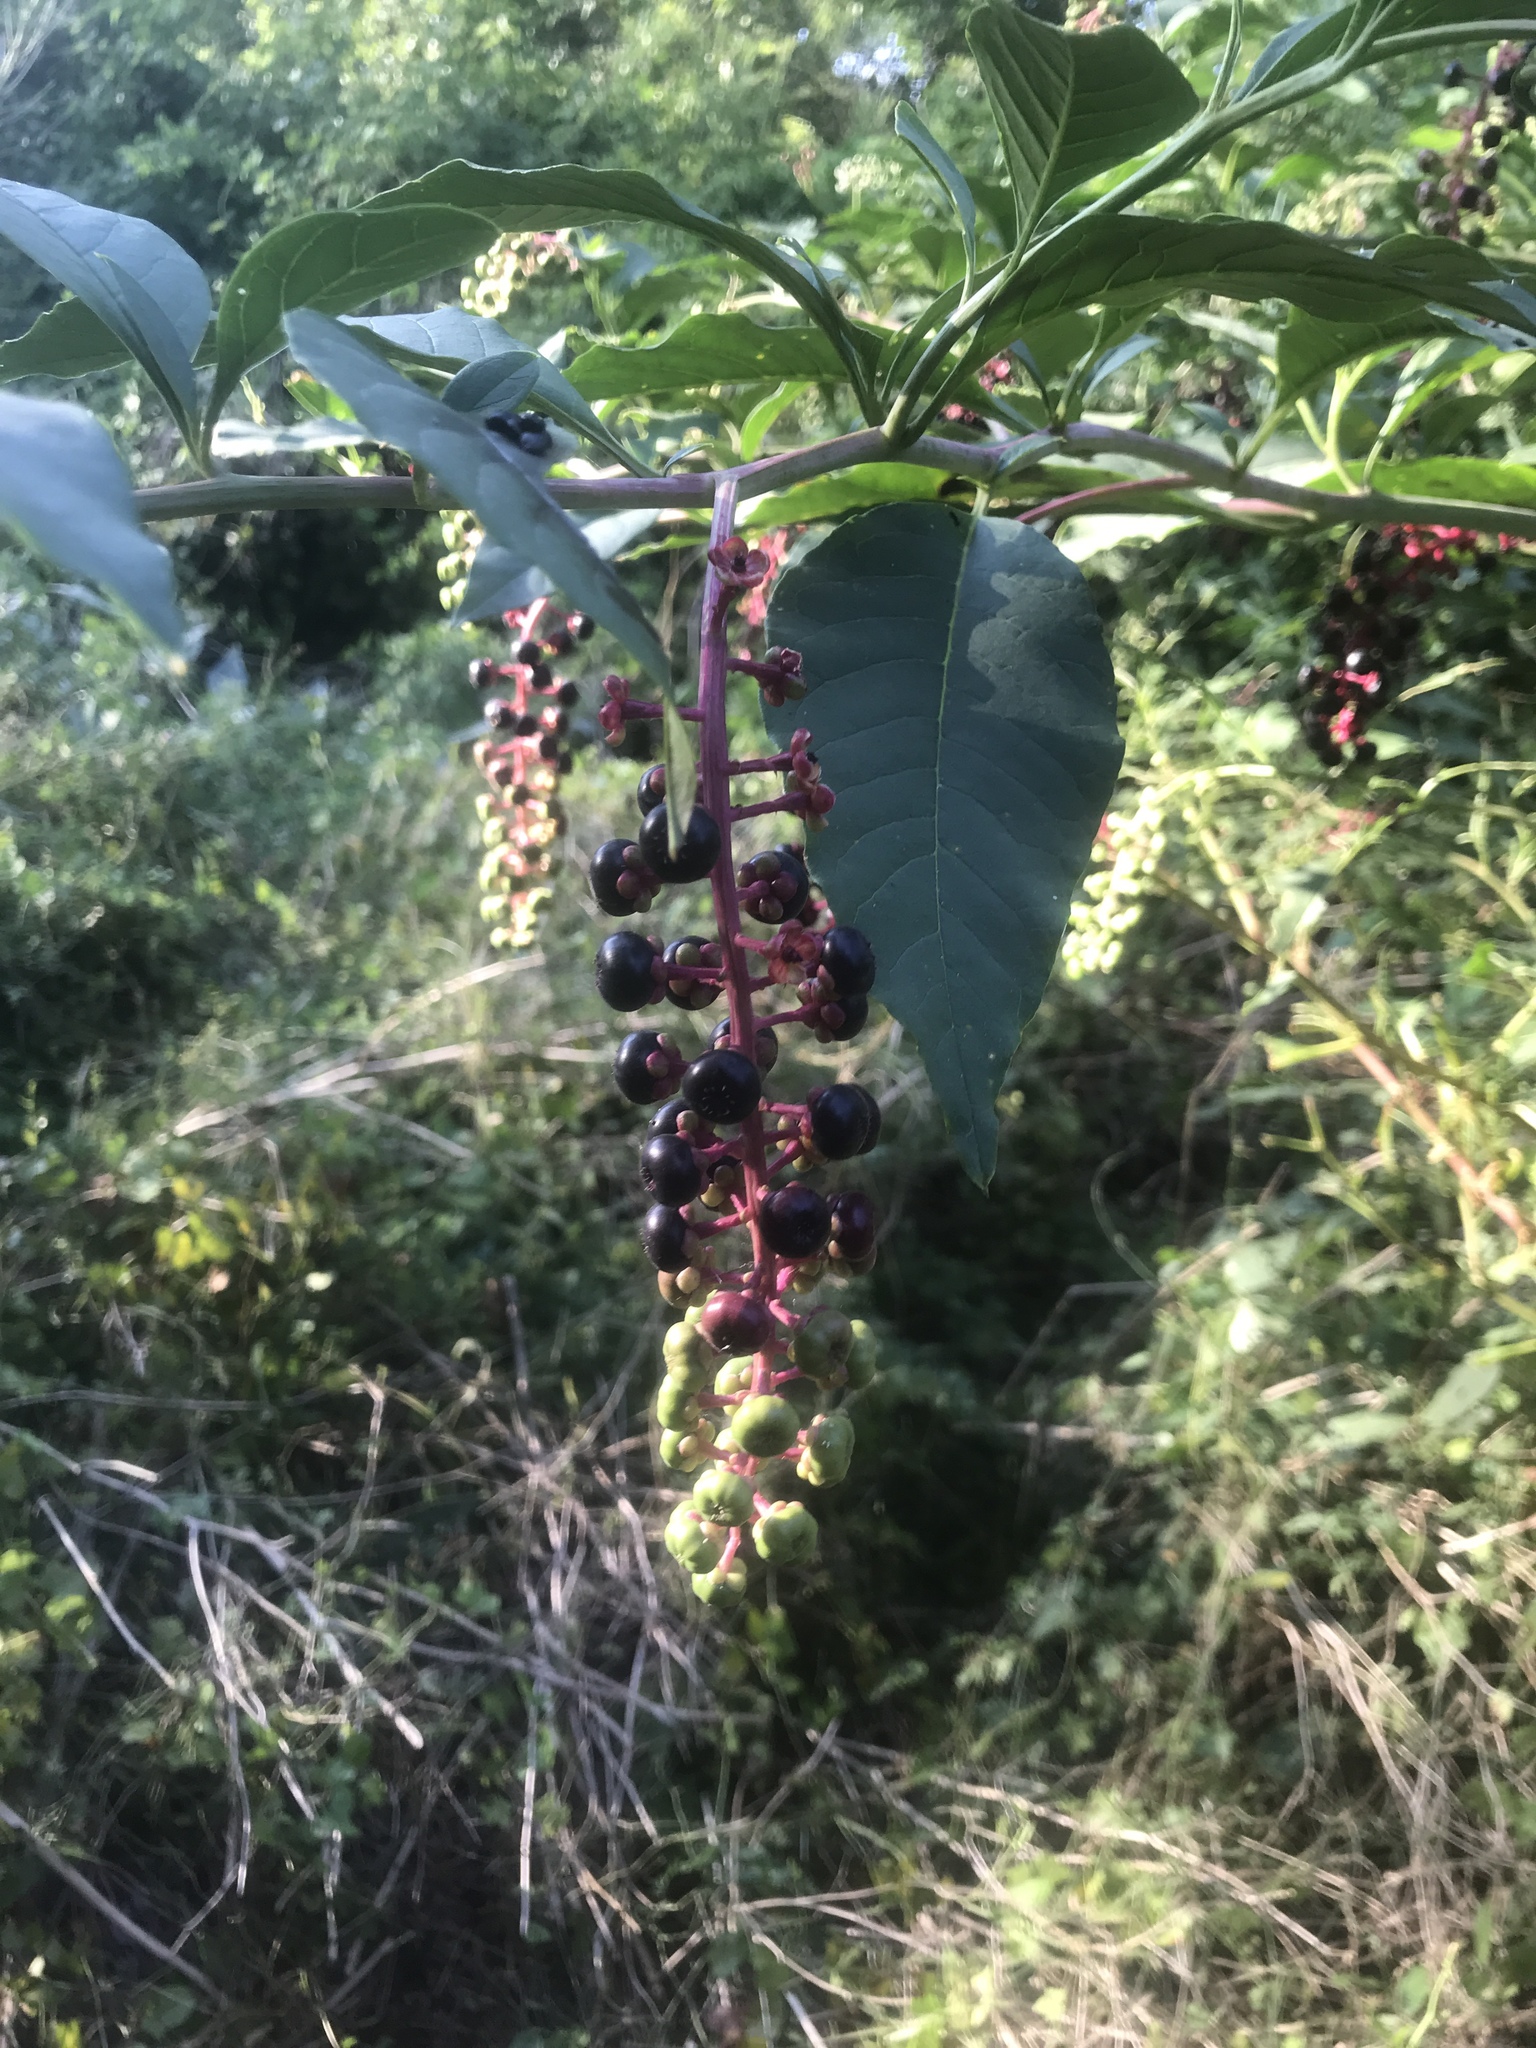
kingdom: Plantae
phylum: Tracheophyta
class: Magnoliopsida
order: Caryophyllales
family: Phytolaccaceae
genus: Phytolacca
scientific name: Phytolacca americana
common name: American pokeweed
